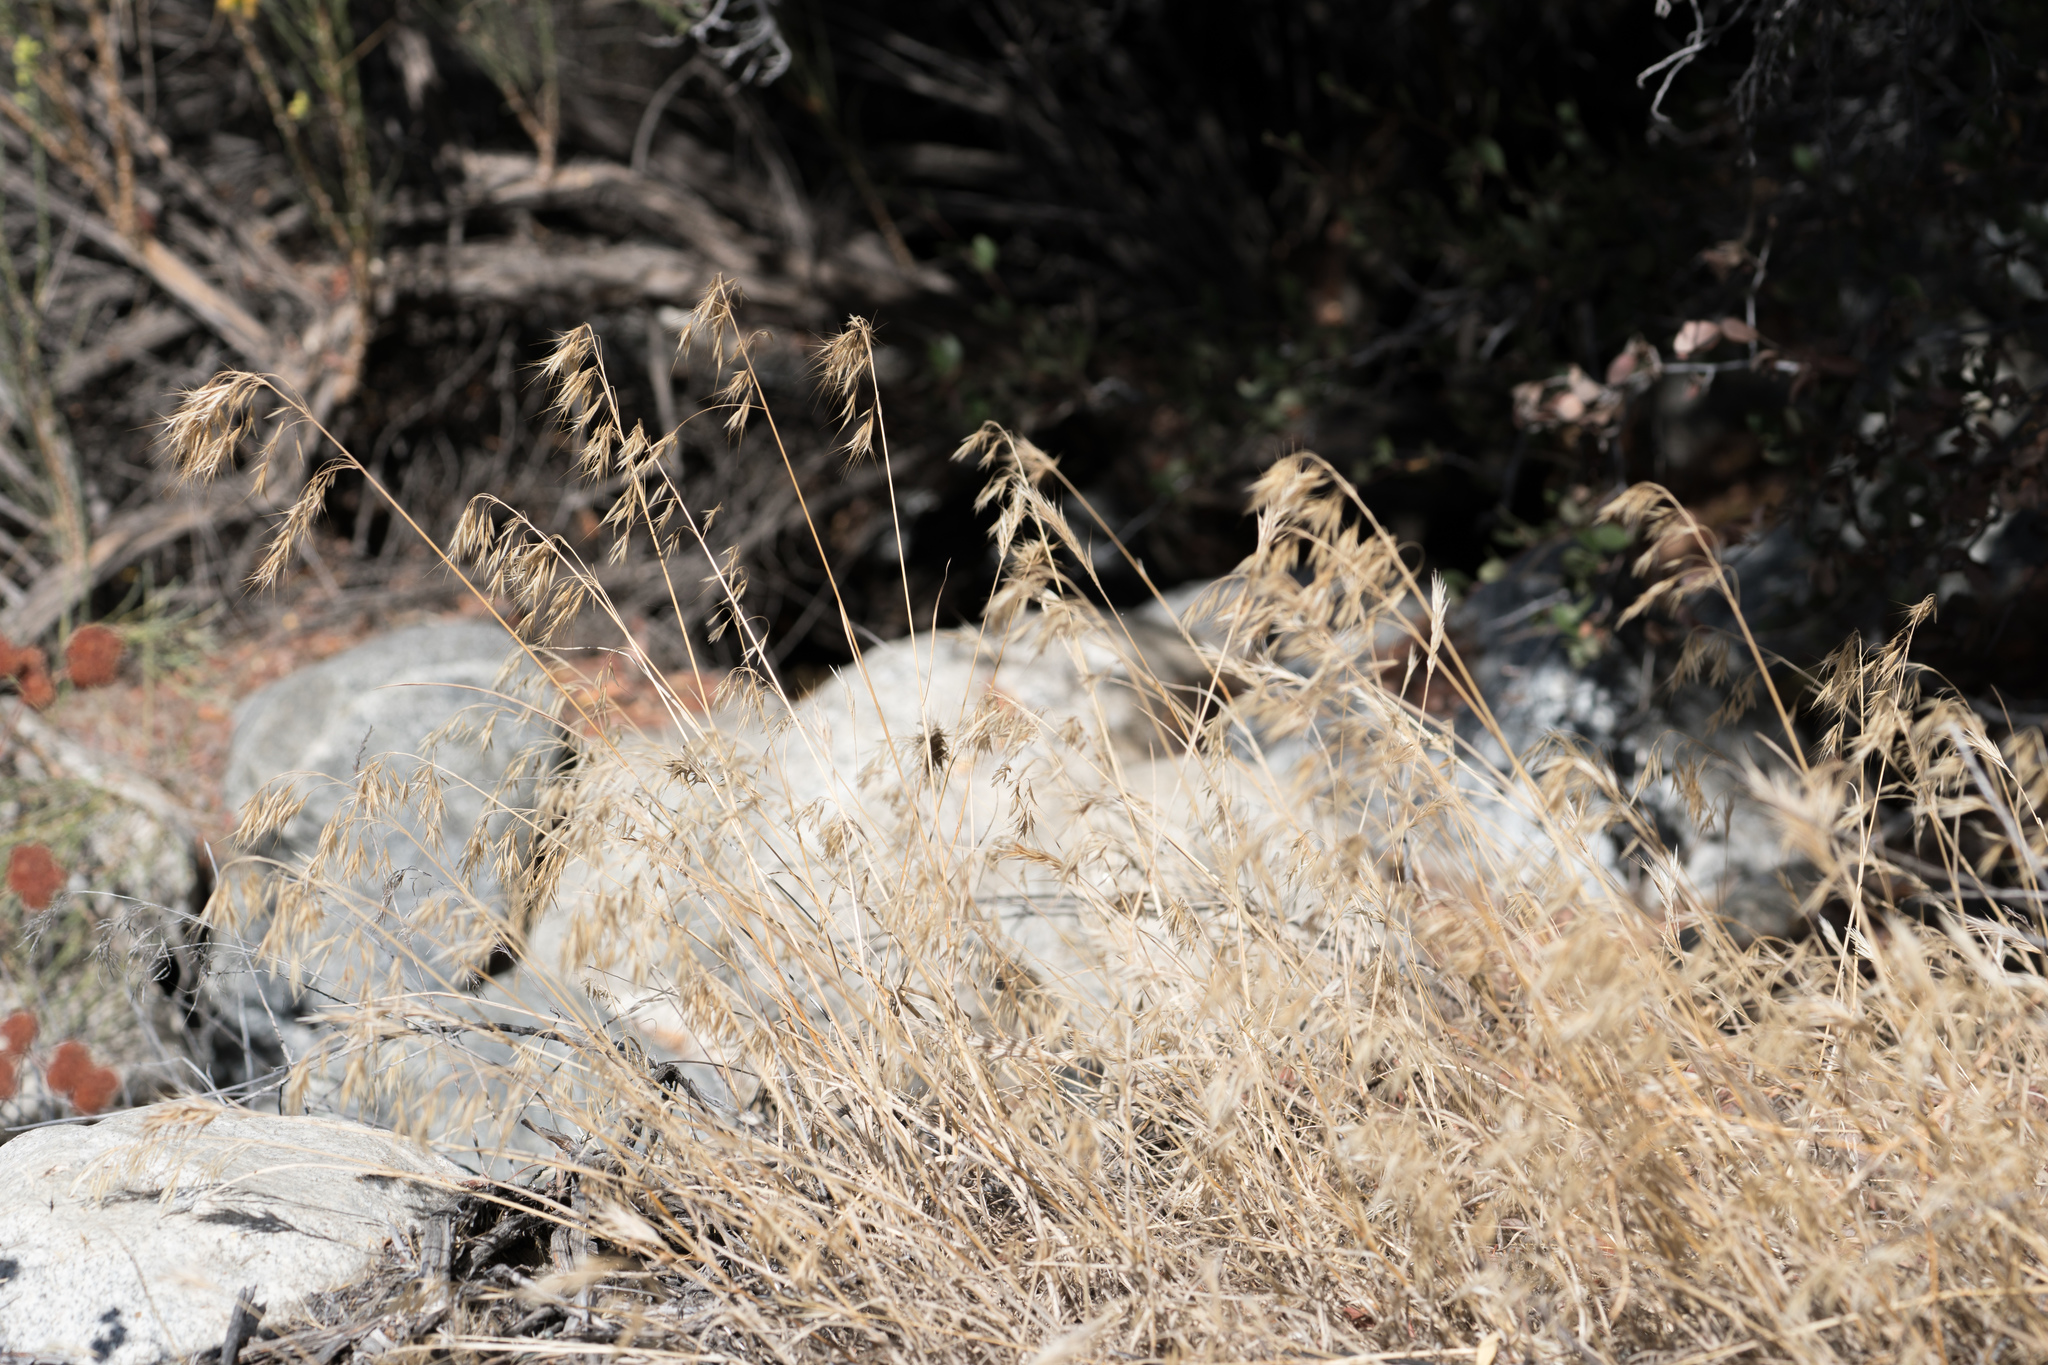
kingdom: Plantae
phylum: Tracheophyta
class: Liliopsida
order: Poales
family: Poaceae
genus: Bromus
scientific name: Bromus tectorum
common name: Cheatgrass
